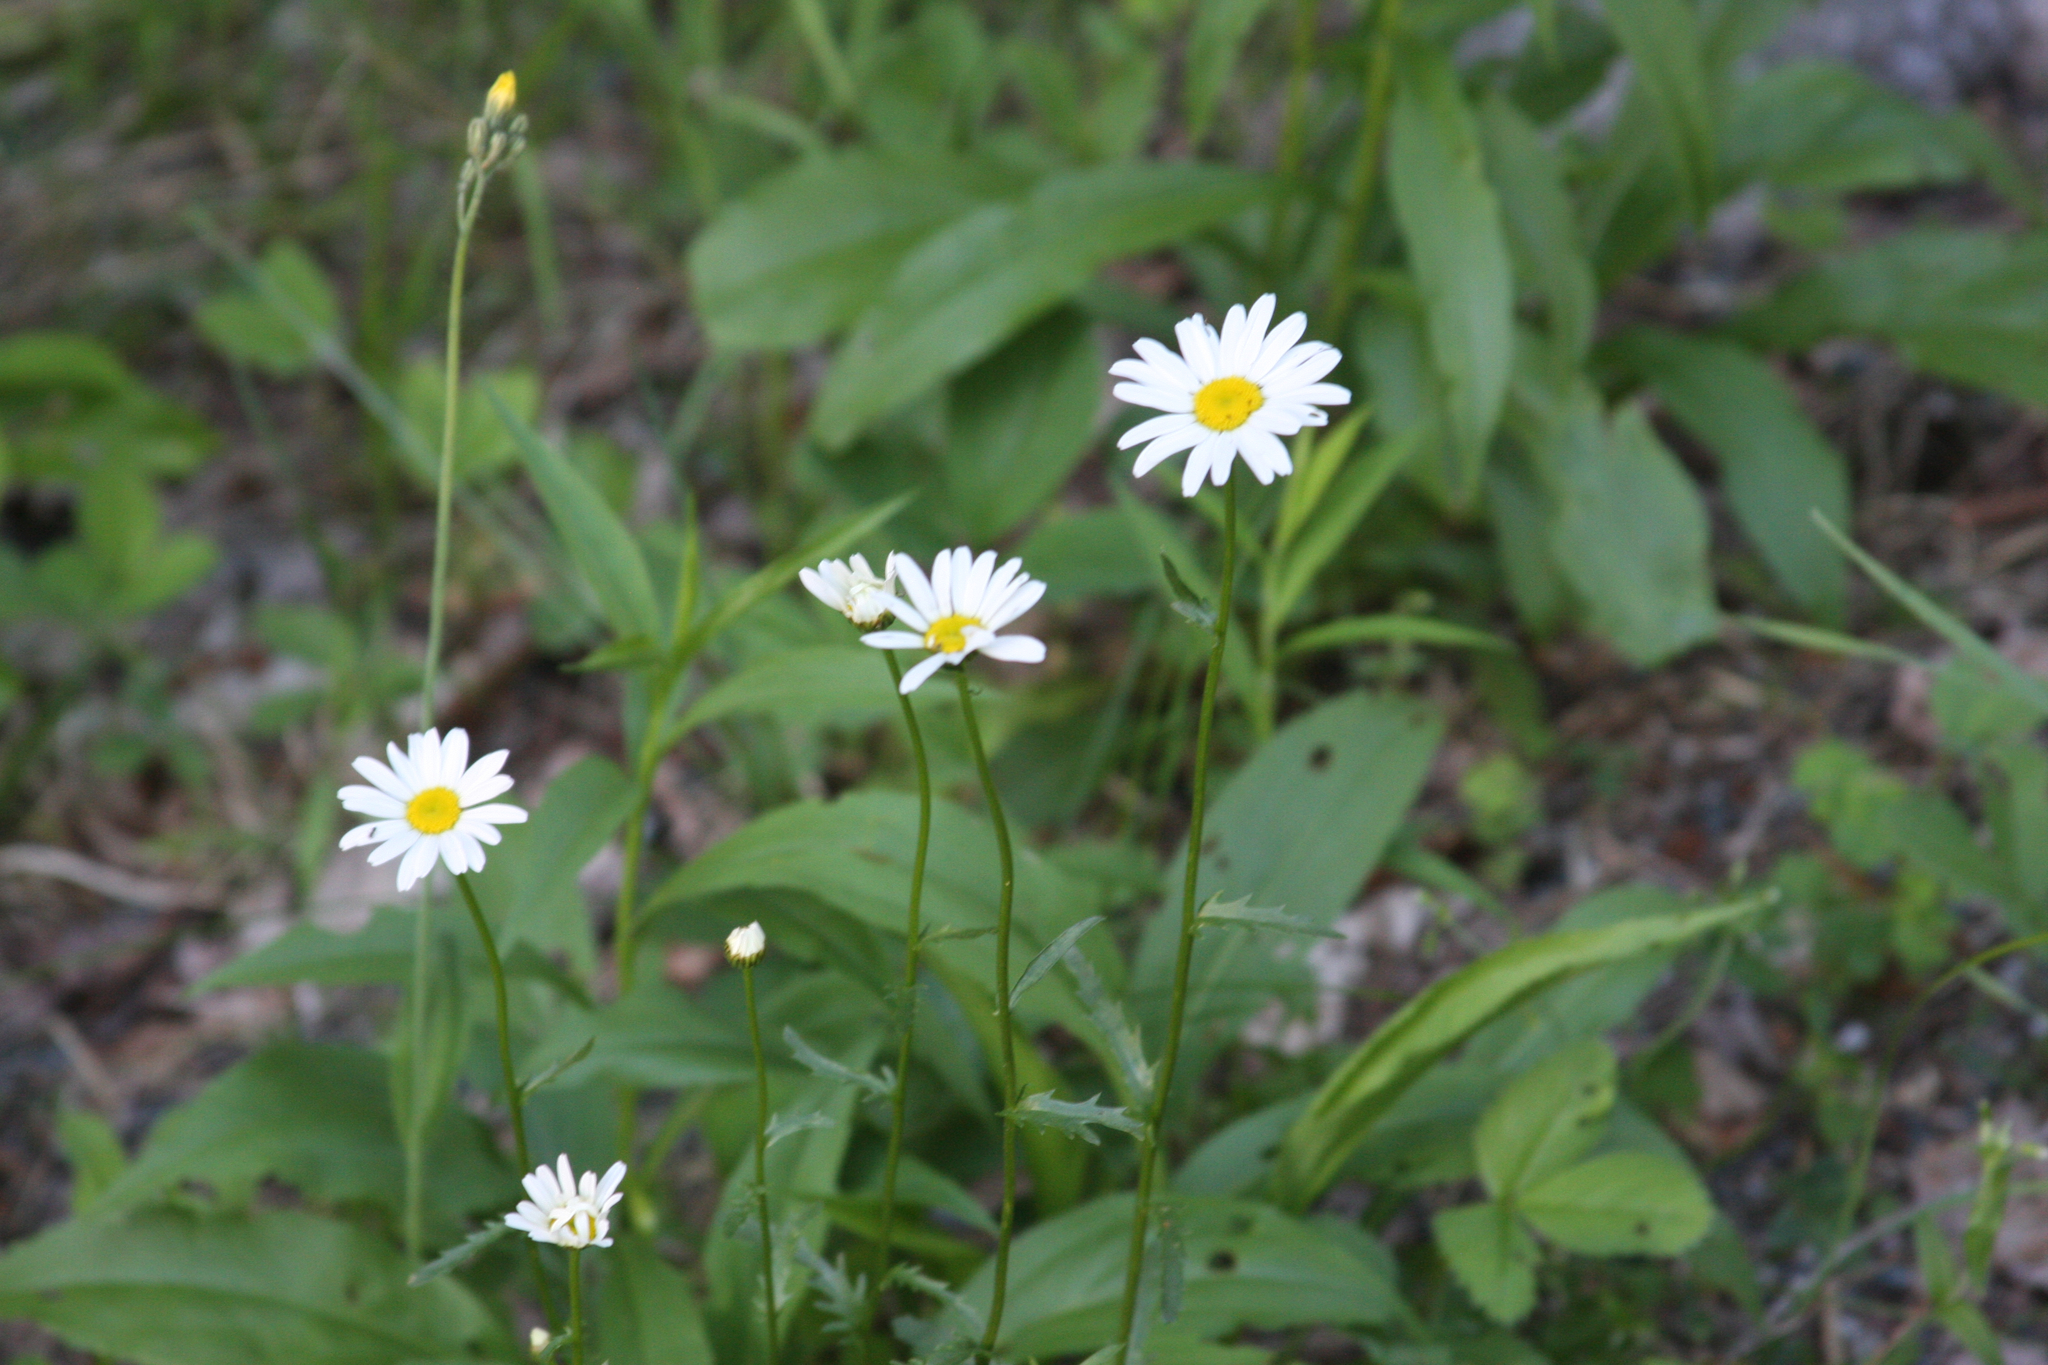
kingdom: Plantae
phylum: Tracheophyta
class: Magnoliopsida
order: Asterales
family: Asteraceae
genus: Leucanthemum
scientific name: Leucanthemum vulgare
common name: Oxeye daisy
